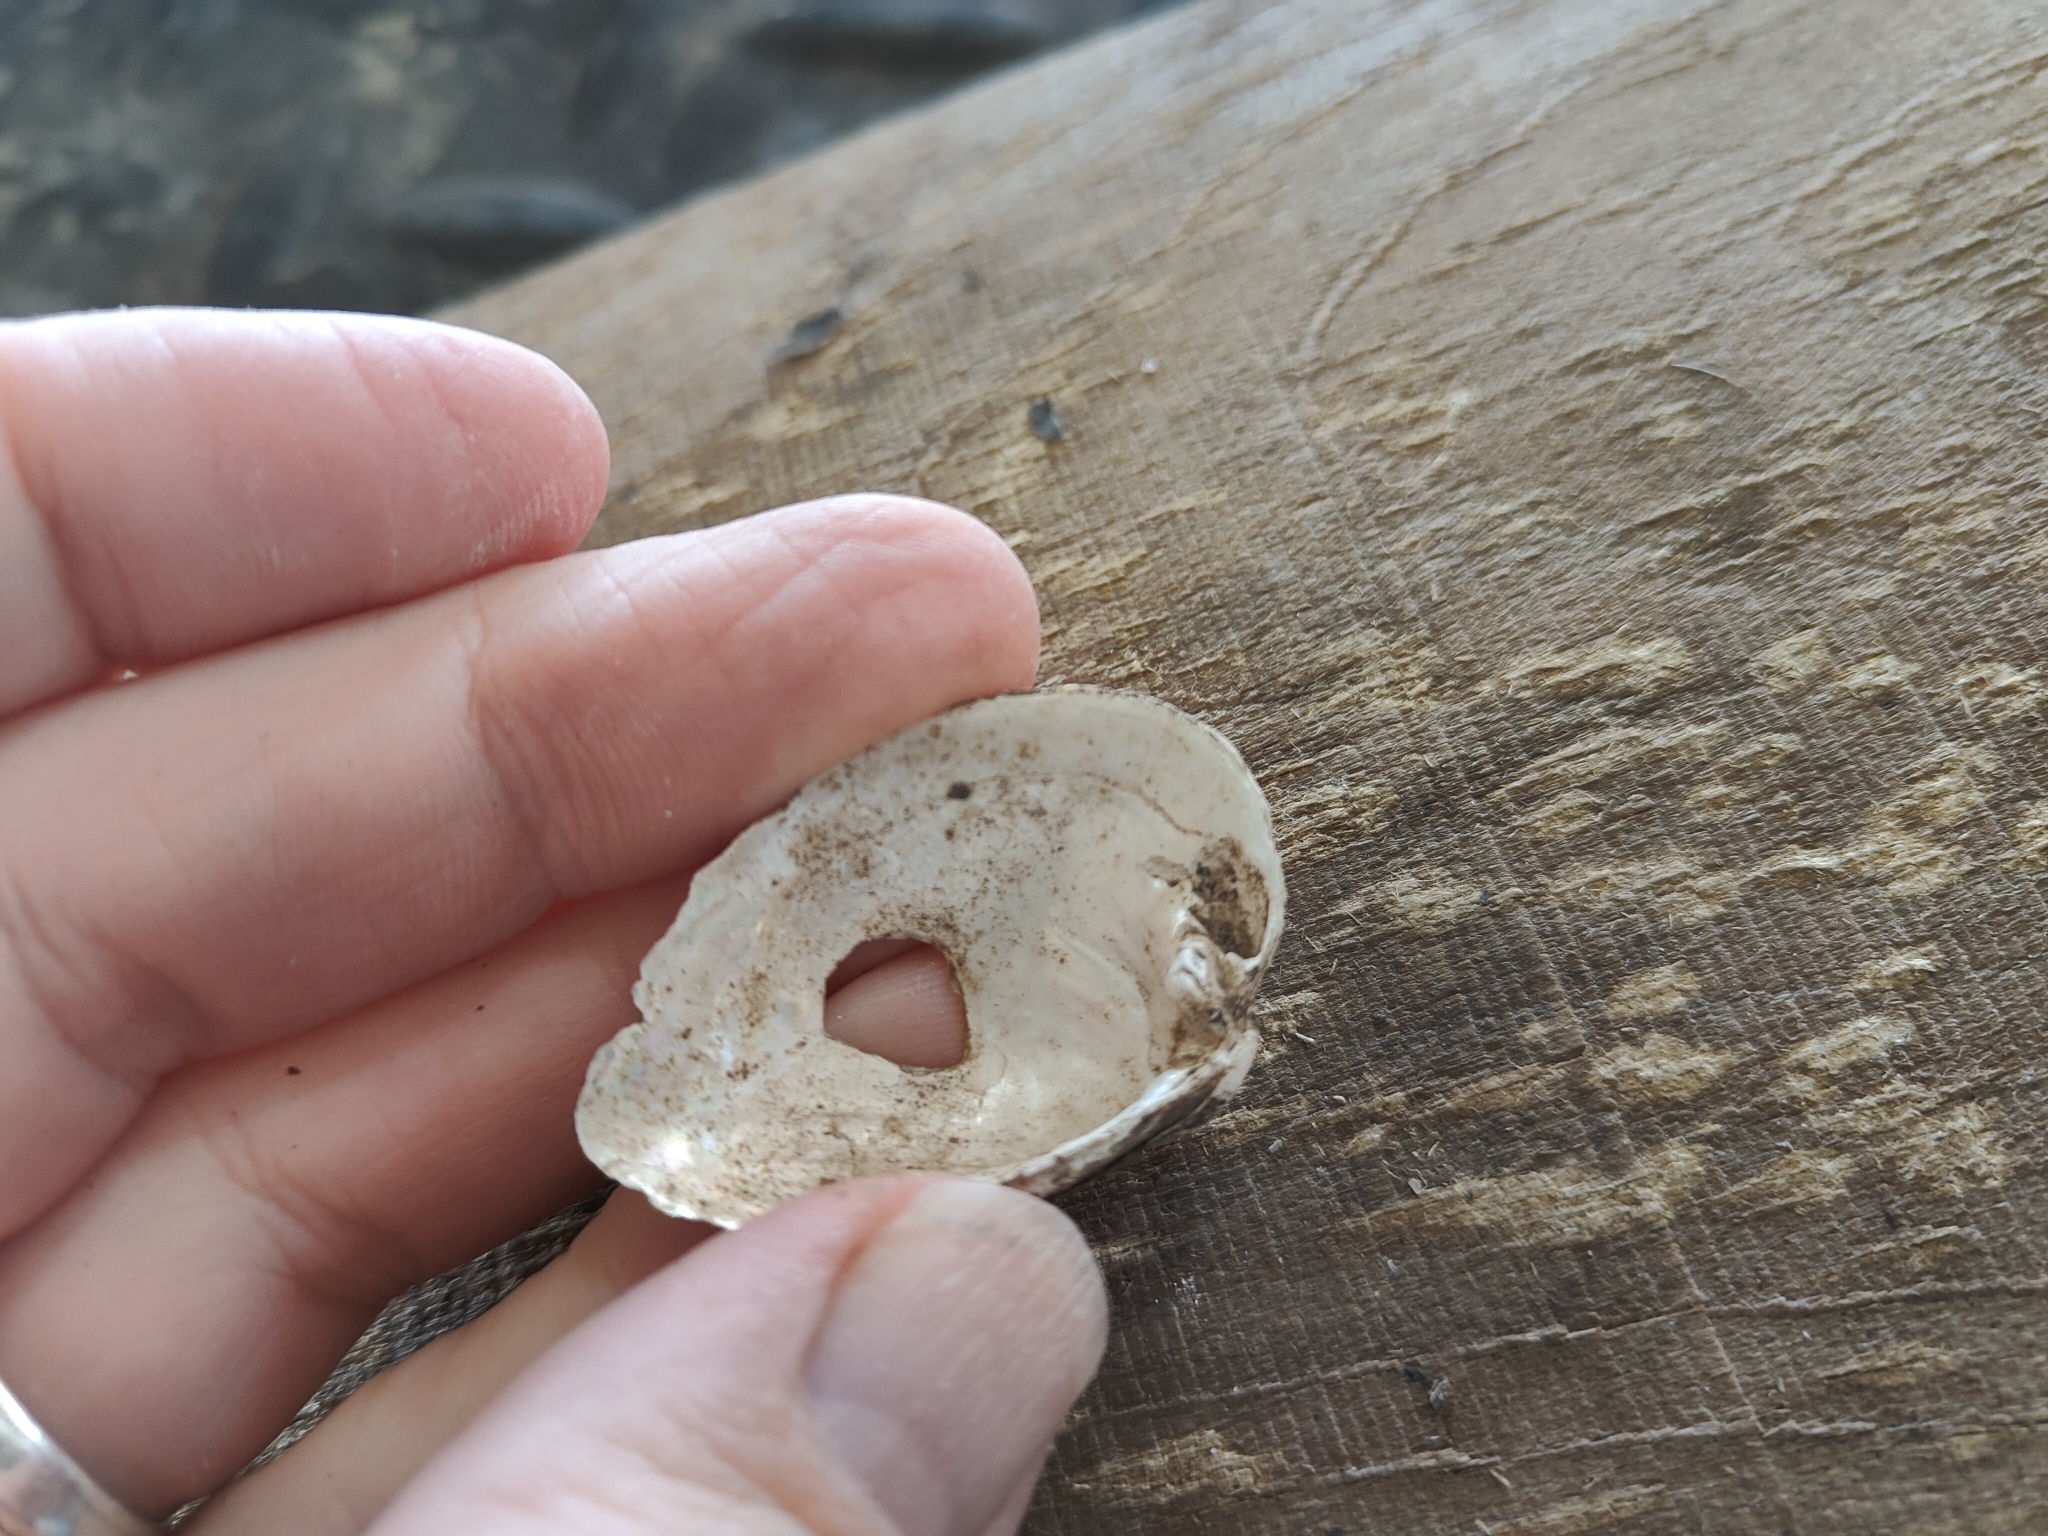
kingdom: Animalia
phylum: Mollusca
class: Bivalvia
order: Unionida
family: Unionidae
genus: Truncilla
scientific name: Truncilla truncata
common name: Deertoe
